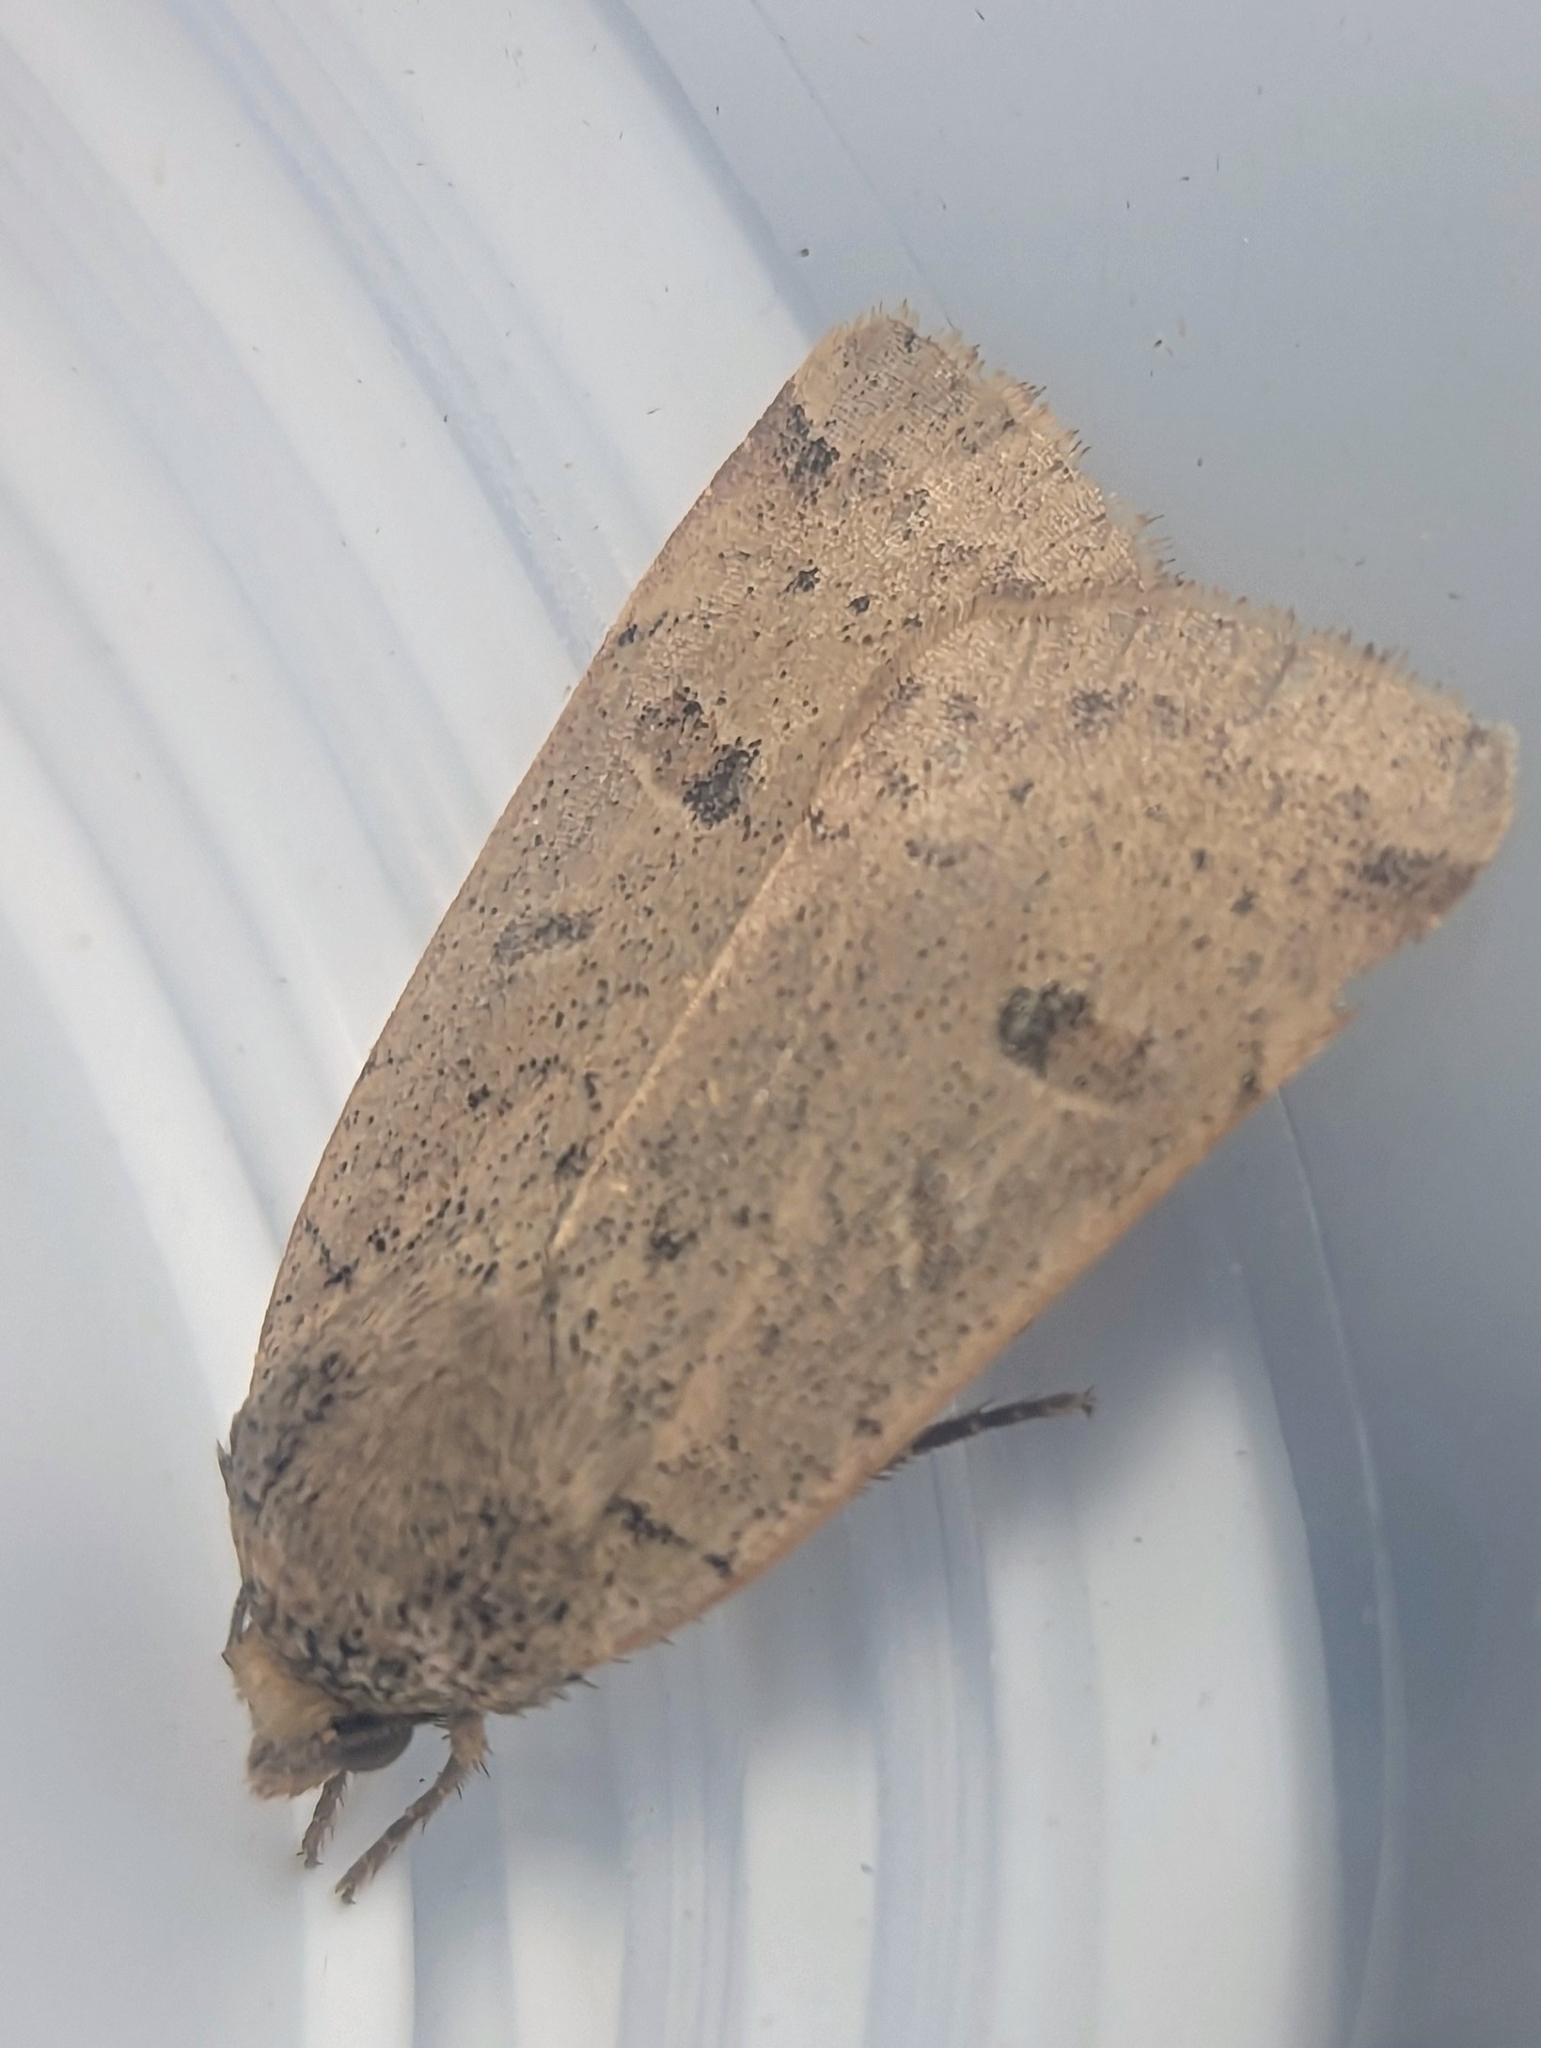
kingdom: Animalia
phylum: Arthropoda
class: Insecta
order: Lepidoptera
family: Noctuidae
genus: Noctua
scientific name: Noctua comes
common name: Lesser yellow underwing
